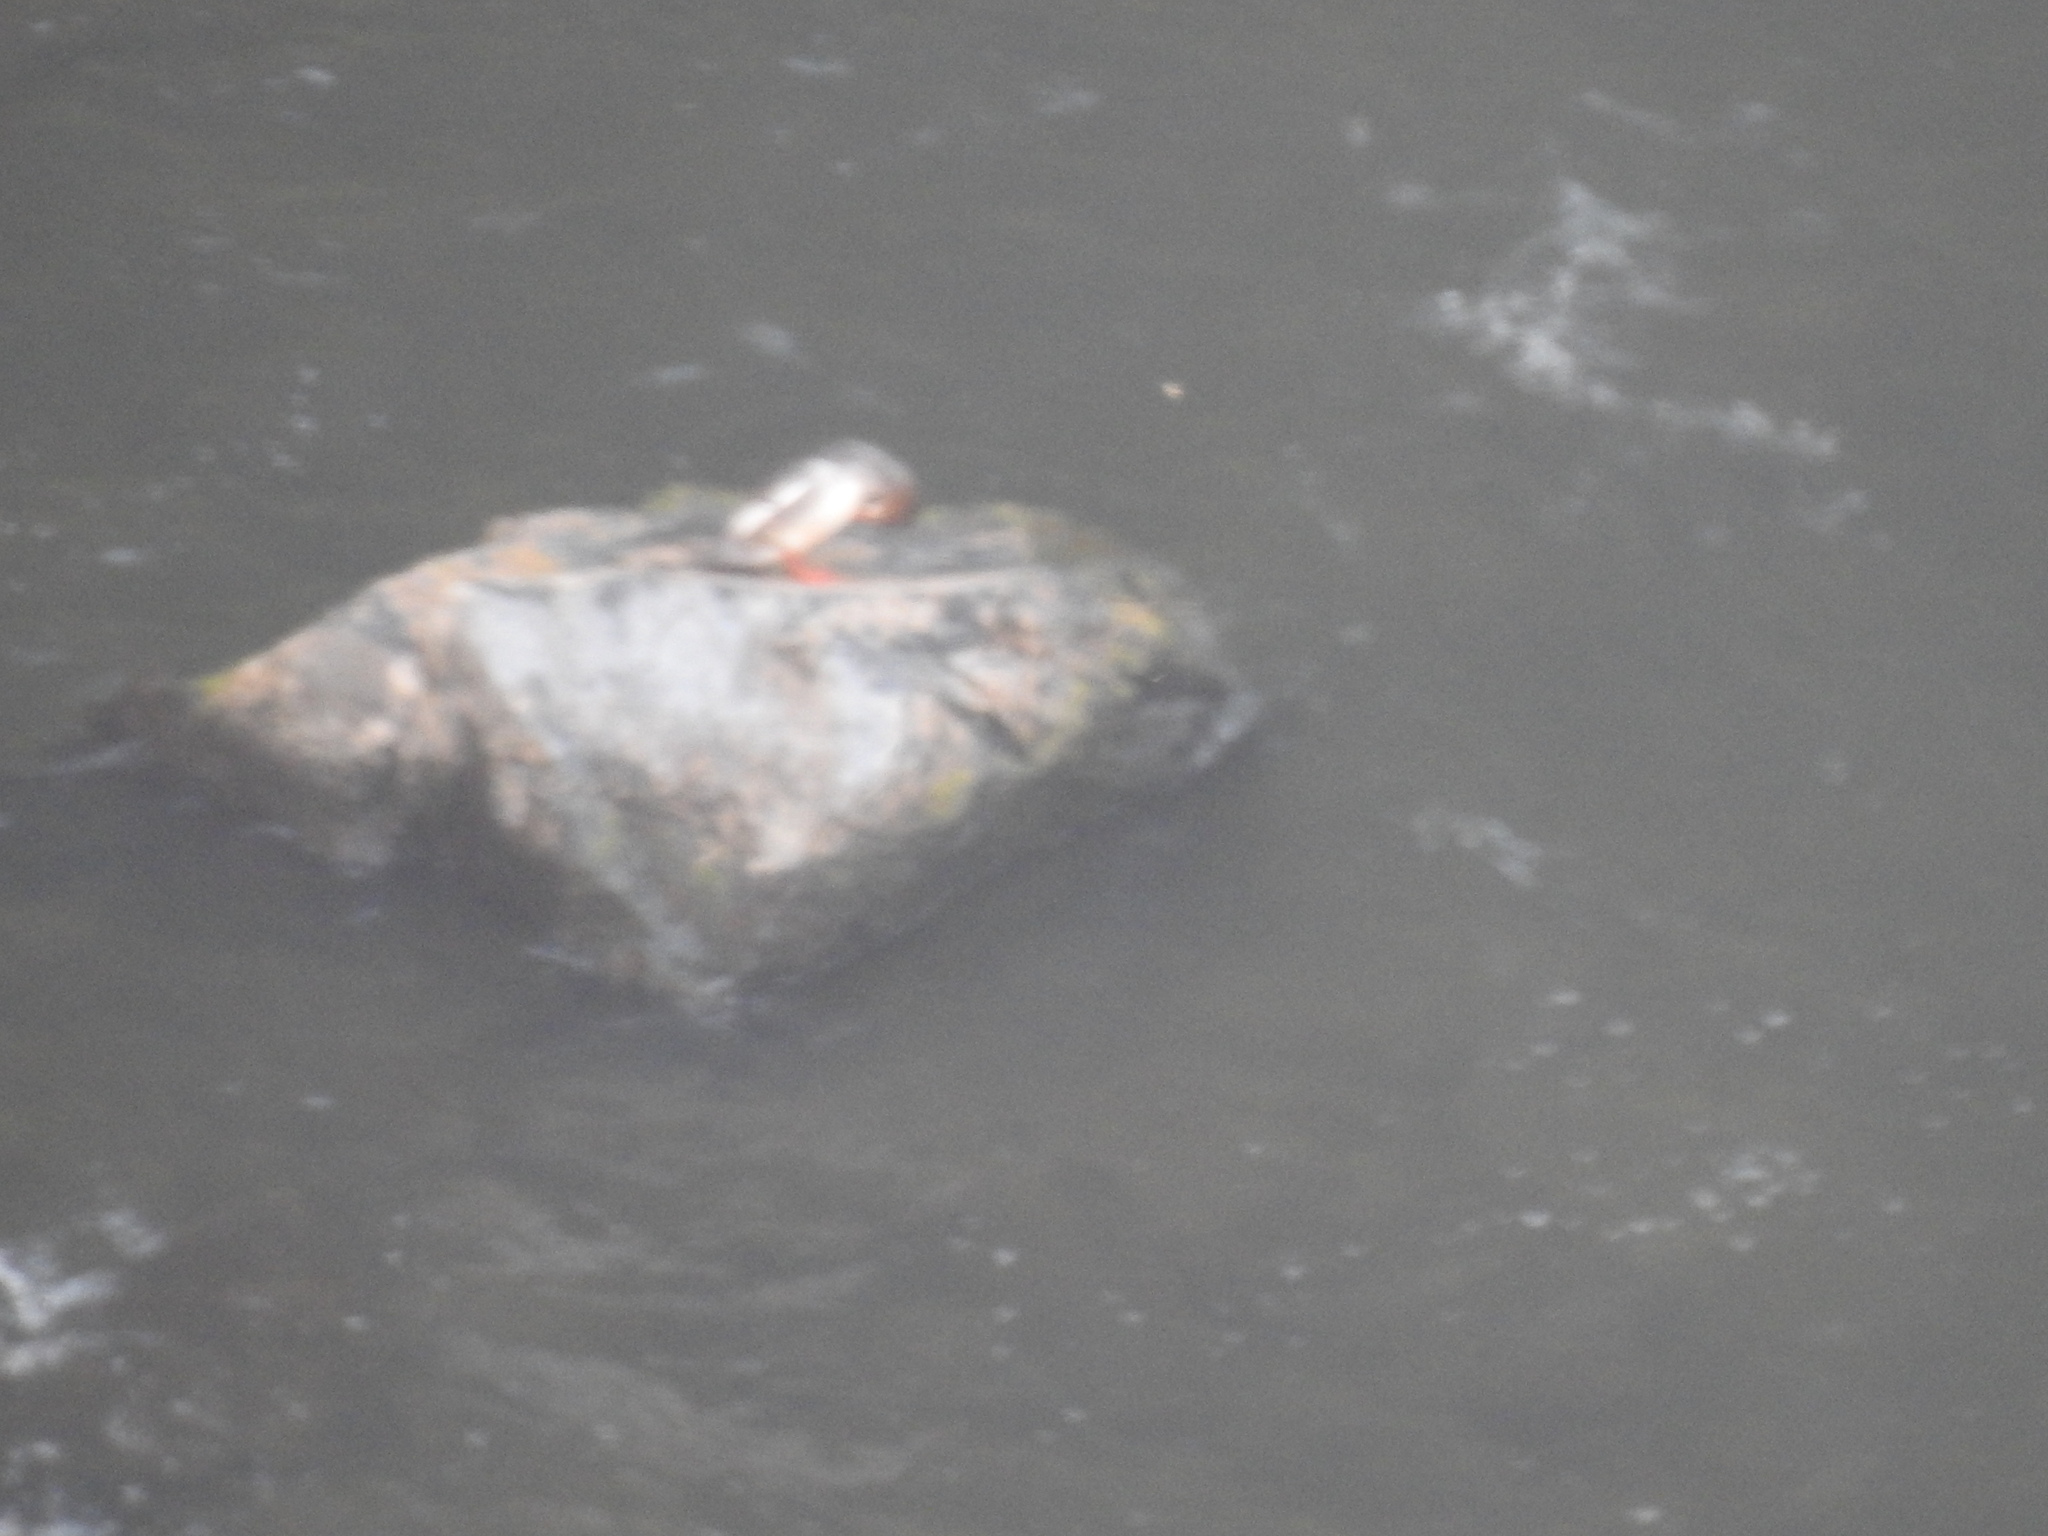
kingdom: Animalia
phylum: Chordata
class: Aves
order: Anseriformes
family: Anatidae
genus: Mergus
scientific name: Mergus merganser
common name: Common merganser
